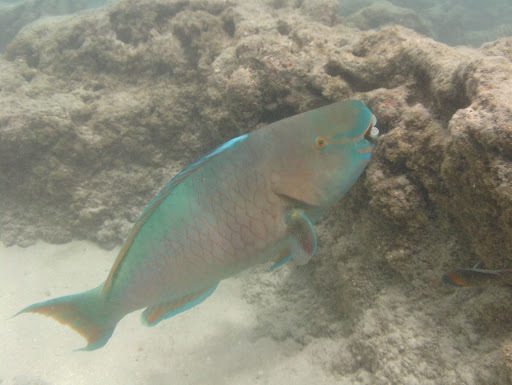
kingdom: Animalia
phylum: Chordata
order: Perciformes
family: Scaridae
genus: Scarus
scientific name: Scarus rubroviolaceus
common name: Ember parrotfish
